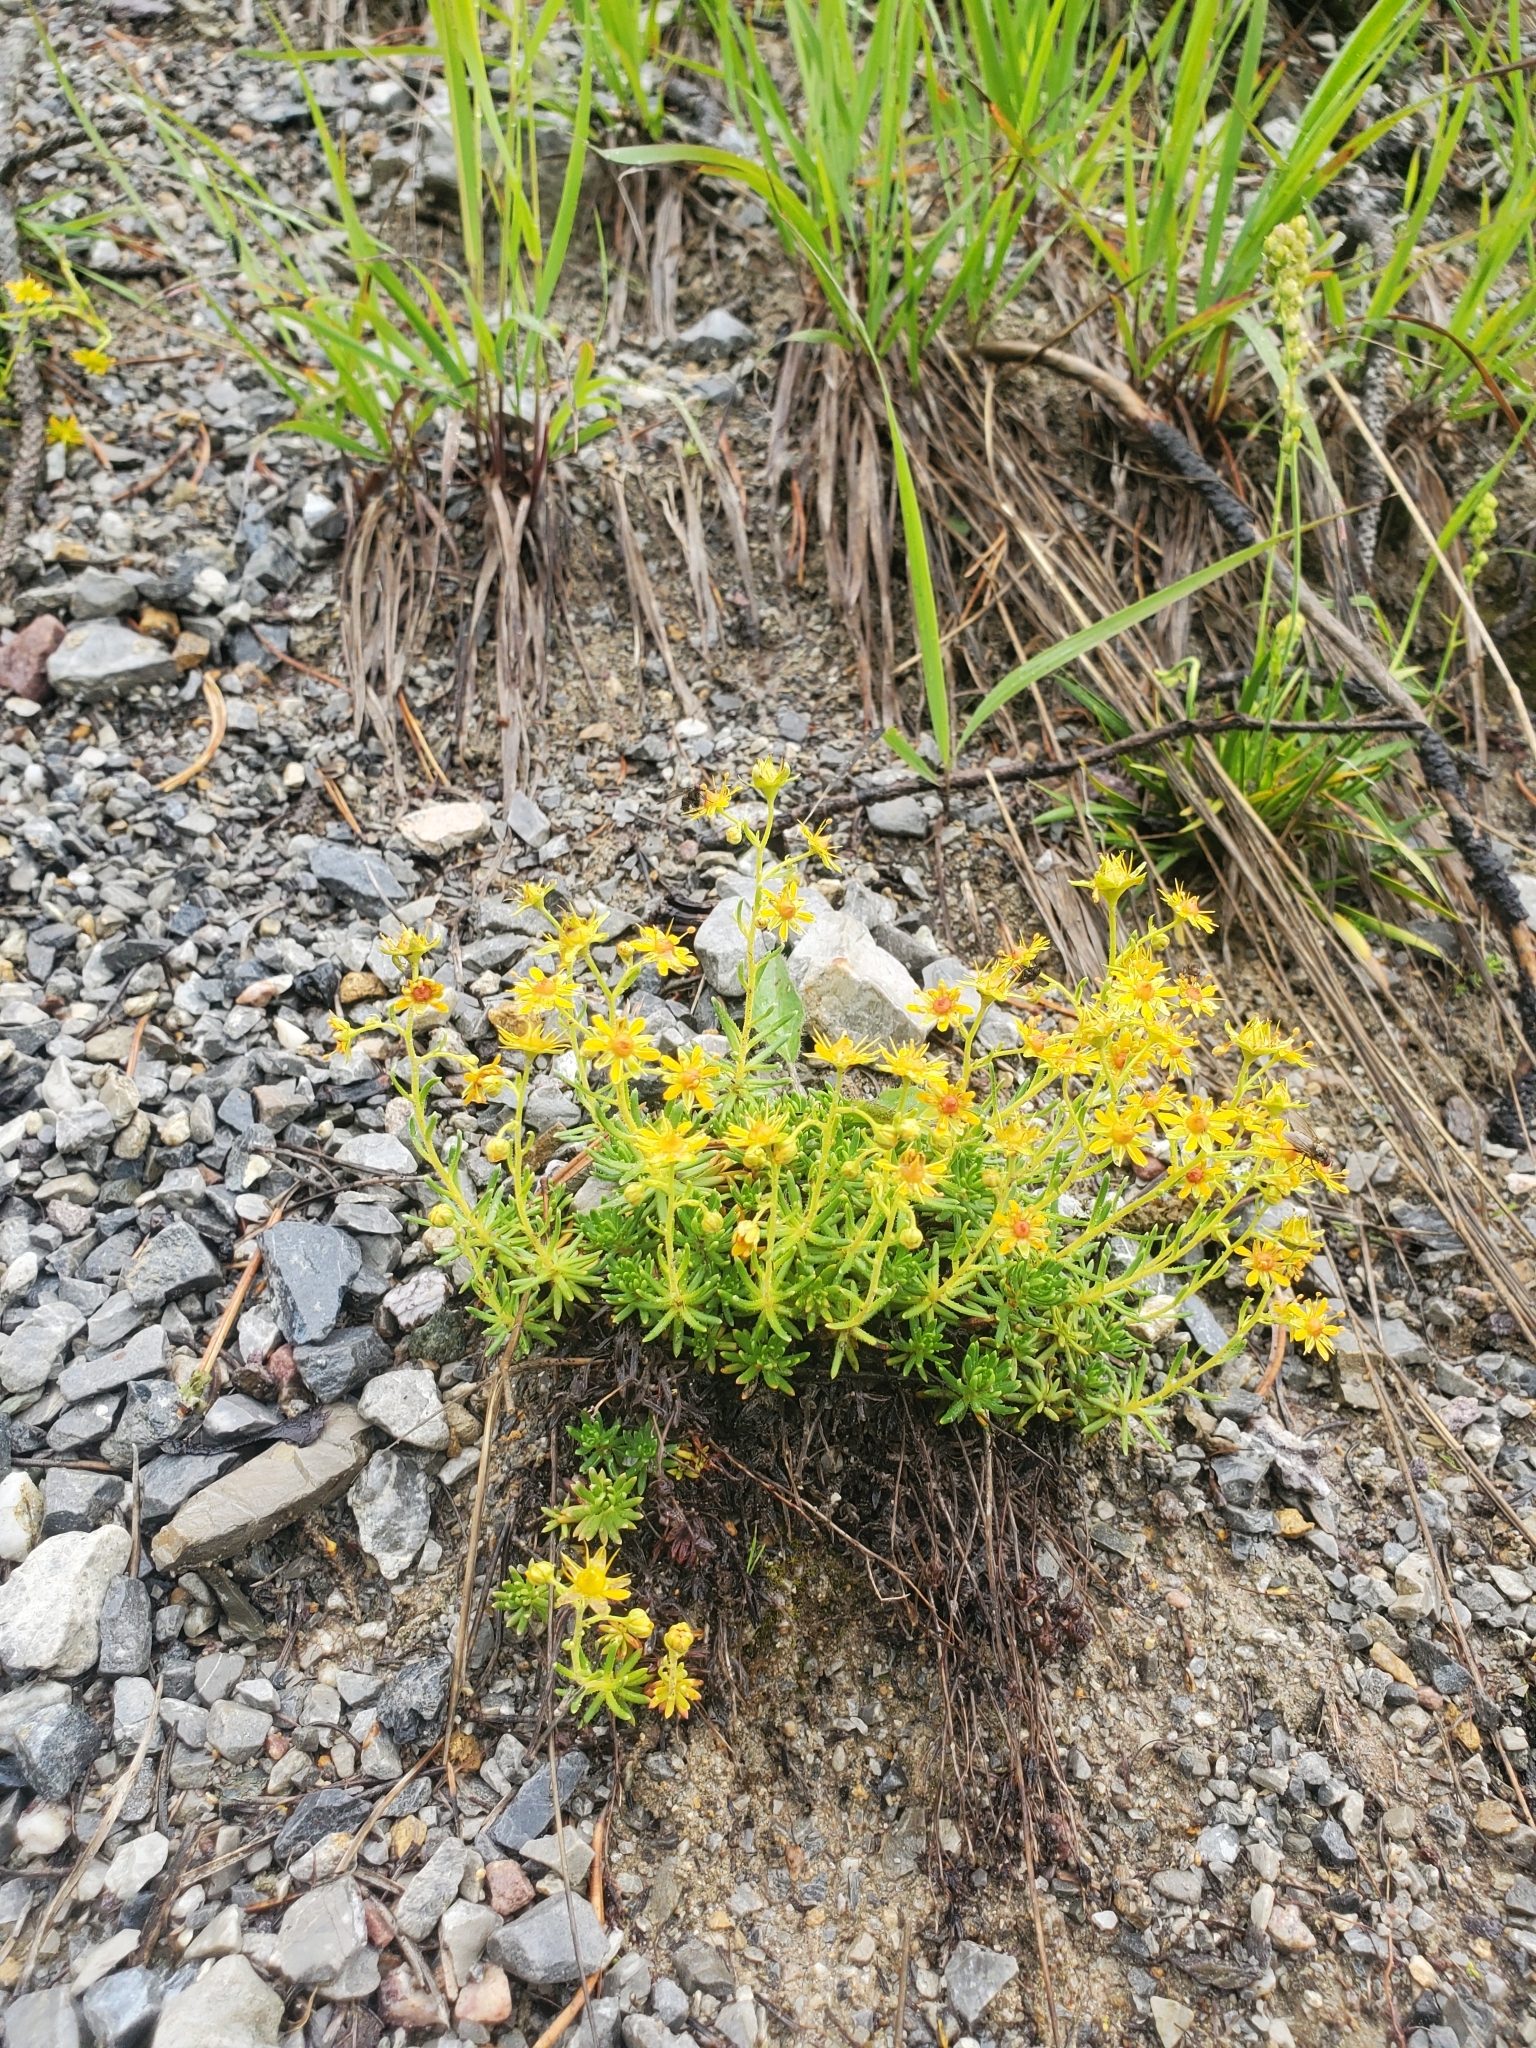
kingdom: Plantae
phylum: Tracheophyta
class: Magnoliopsida
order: Saxifragales
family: Saxifragaceae
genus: Saxifraga
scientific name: Saxifraga aizoides
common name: Yellow mountain saxifrage
